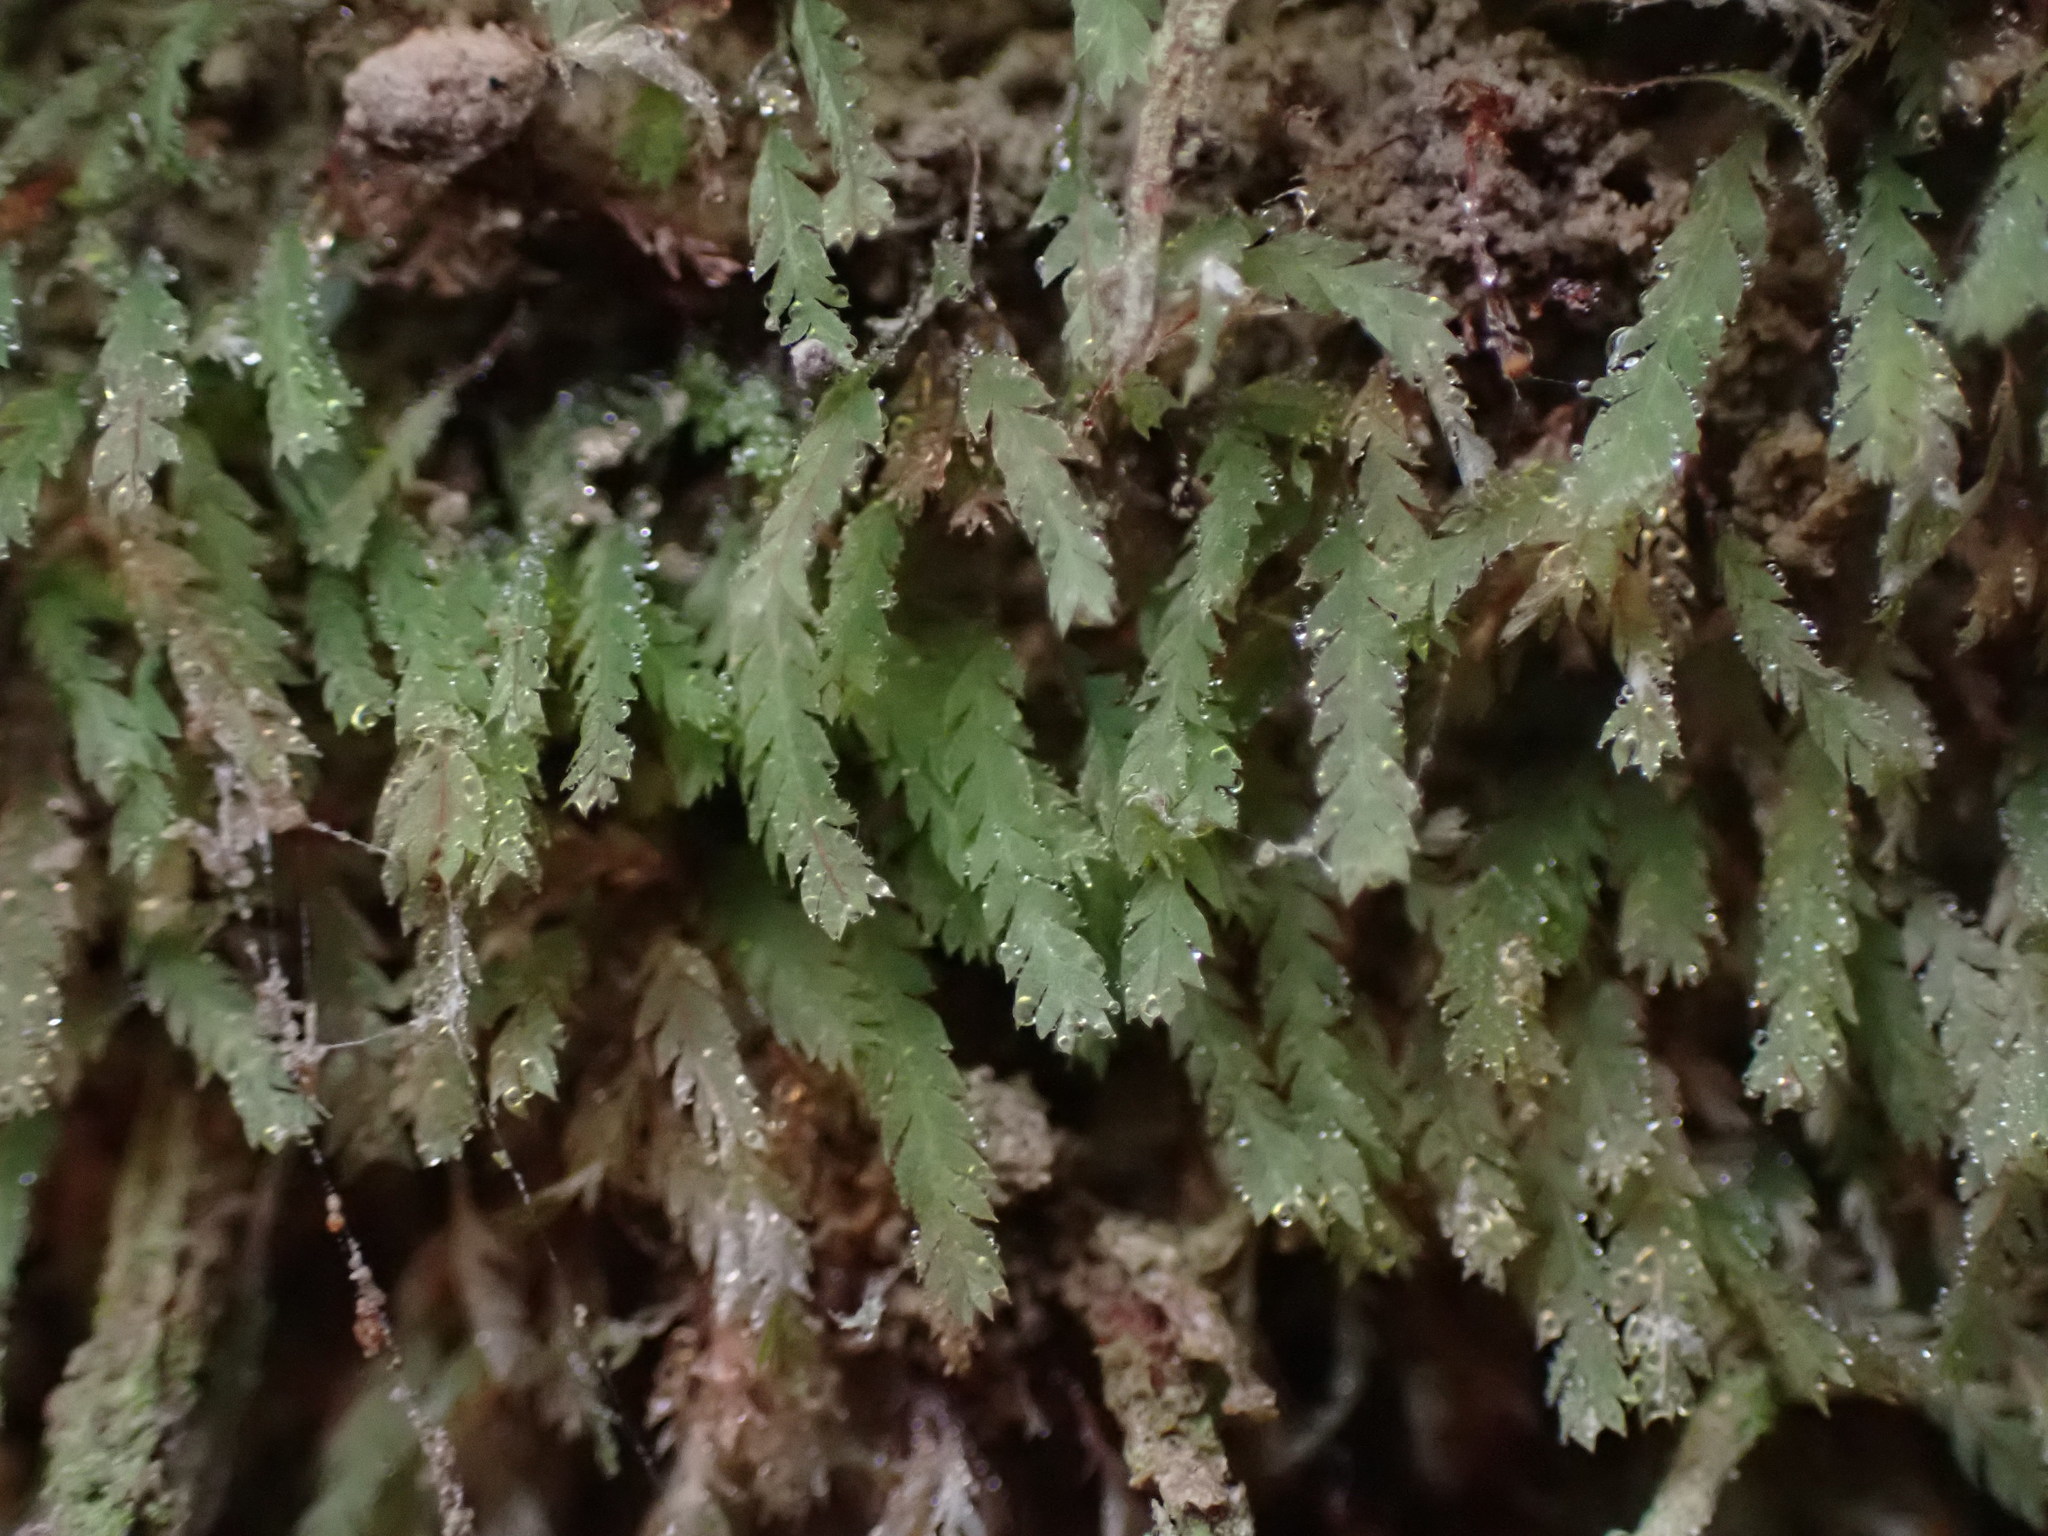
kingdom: Plantae
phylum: Bryophyta
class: Bryopsida
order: Dicranales
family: Schistostegaceae
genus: Schistostega
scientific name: Schistostega pennata
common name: Luminous moss
